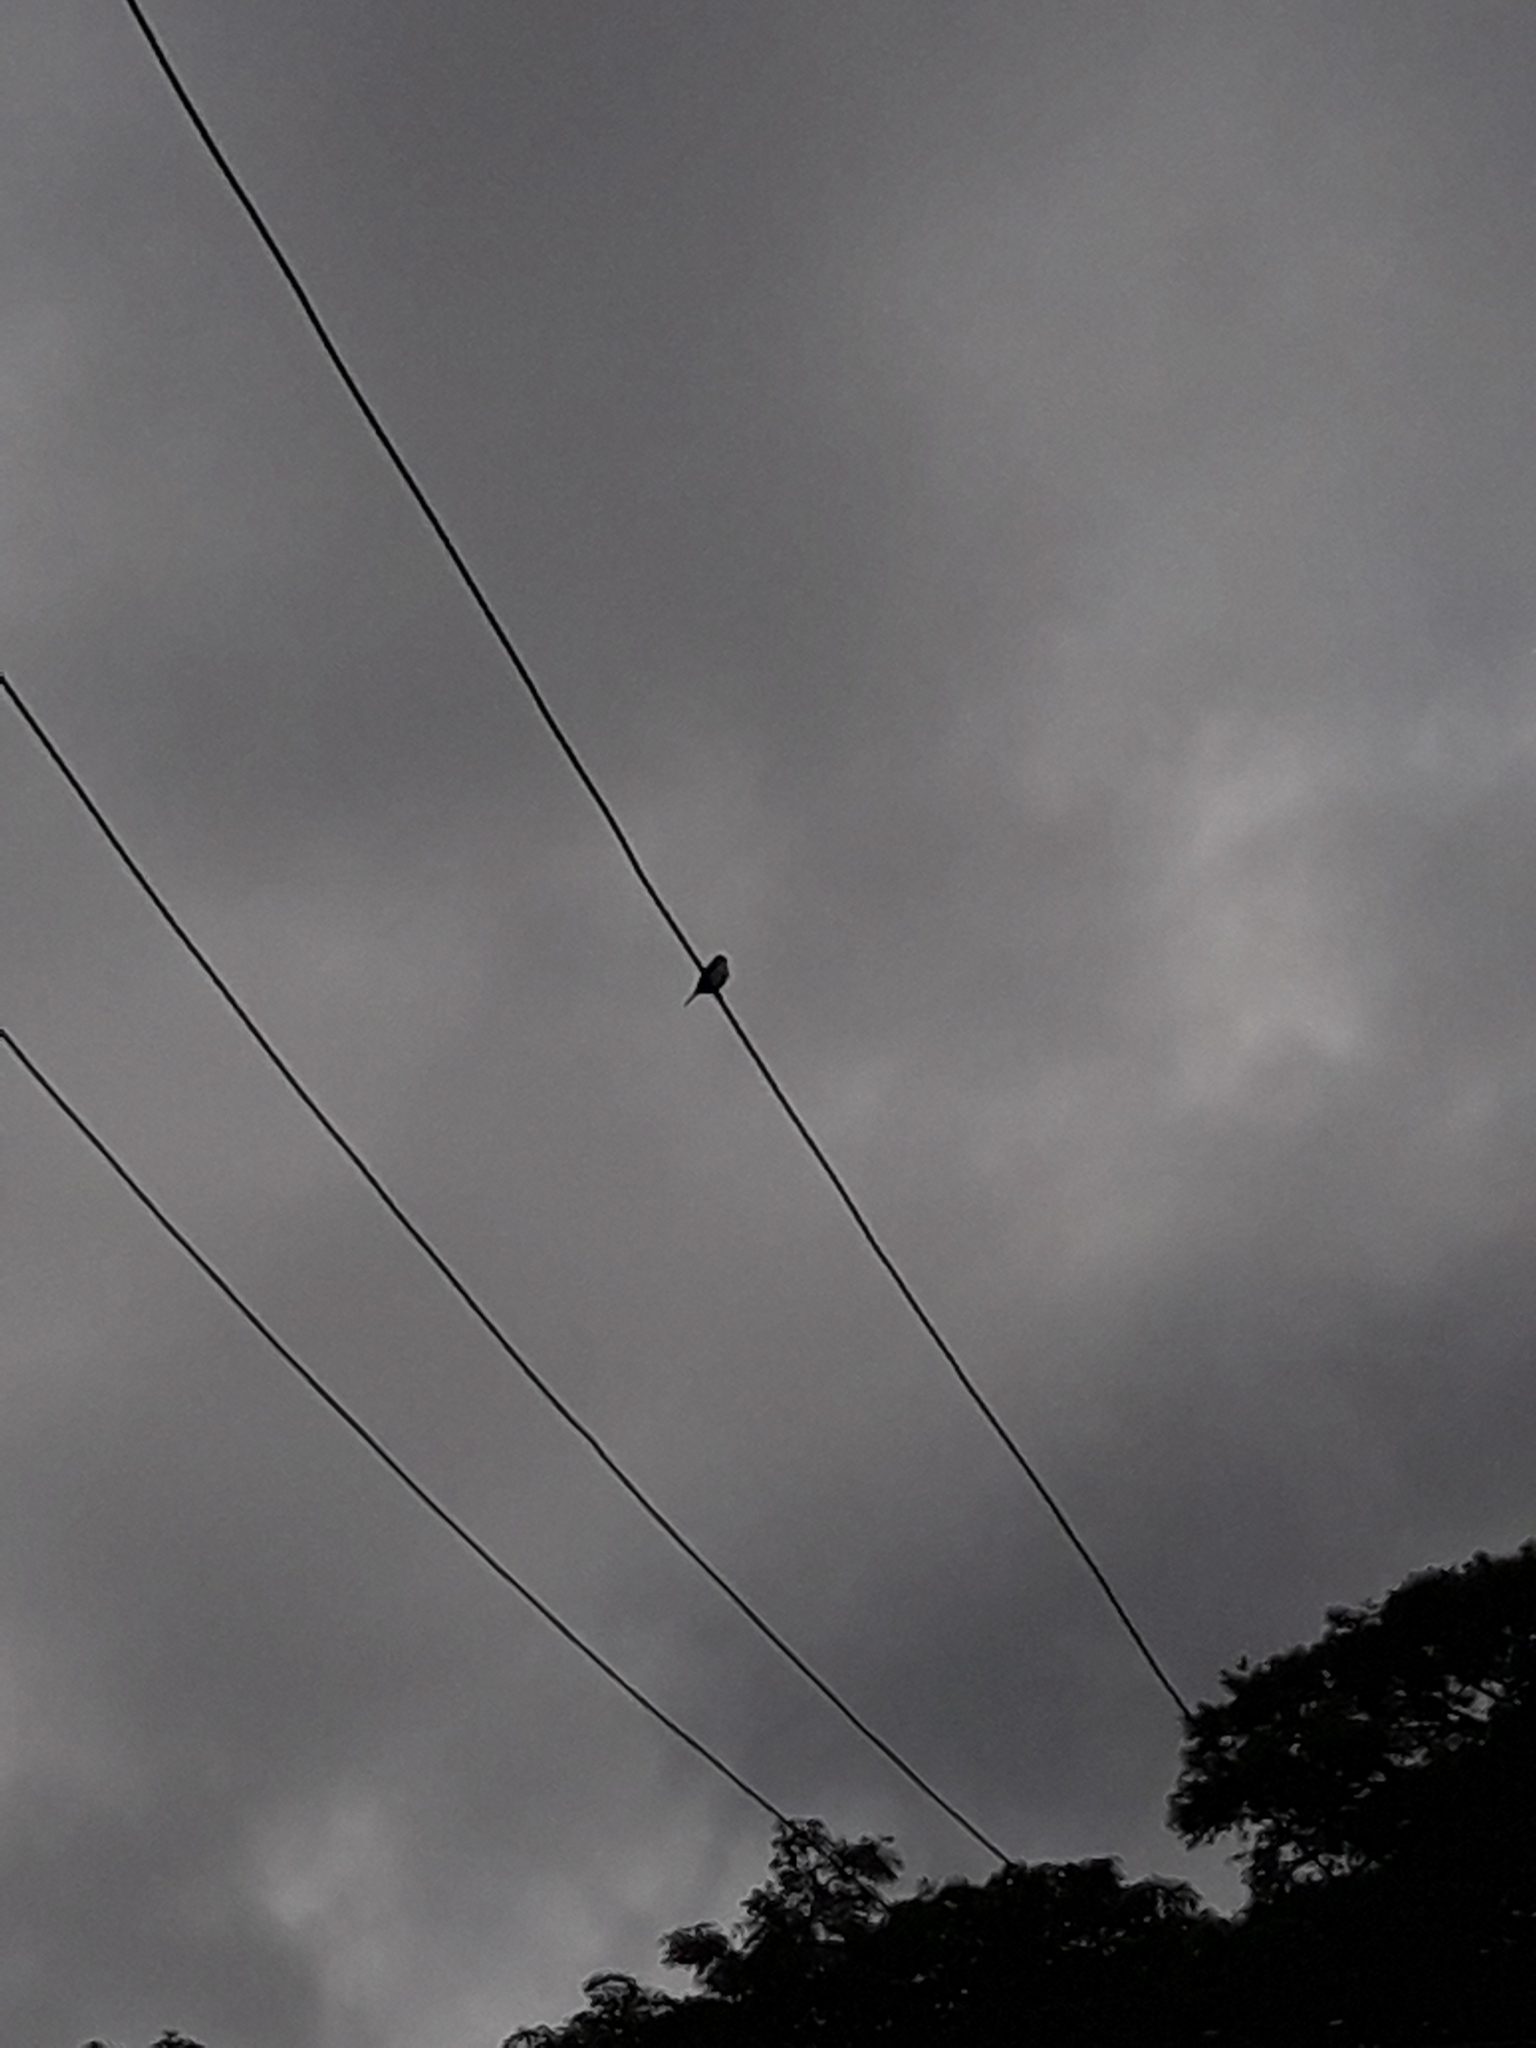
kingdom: Animalia
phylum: Chordata
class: Aves
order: Coraciiformes
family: Alcedinidae
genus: Todiramphus
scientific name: Todiramphus sacer
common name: Pacific kingfisher
